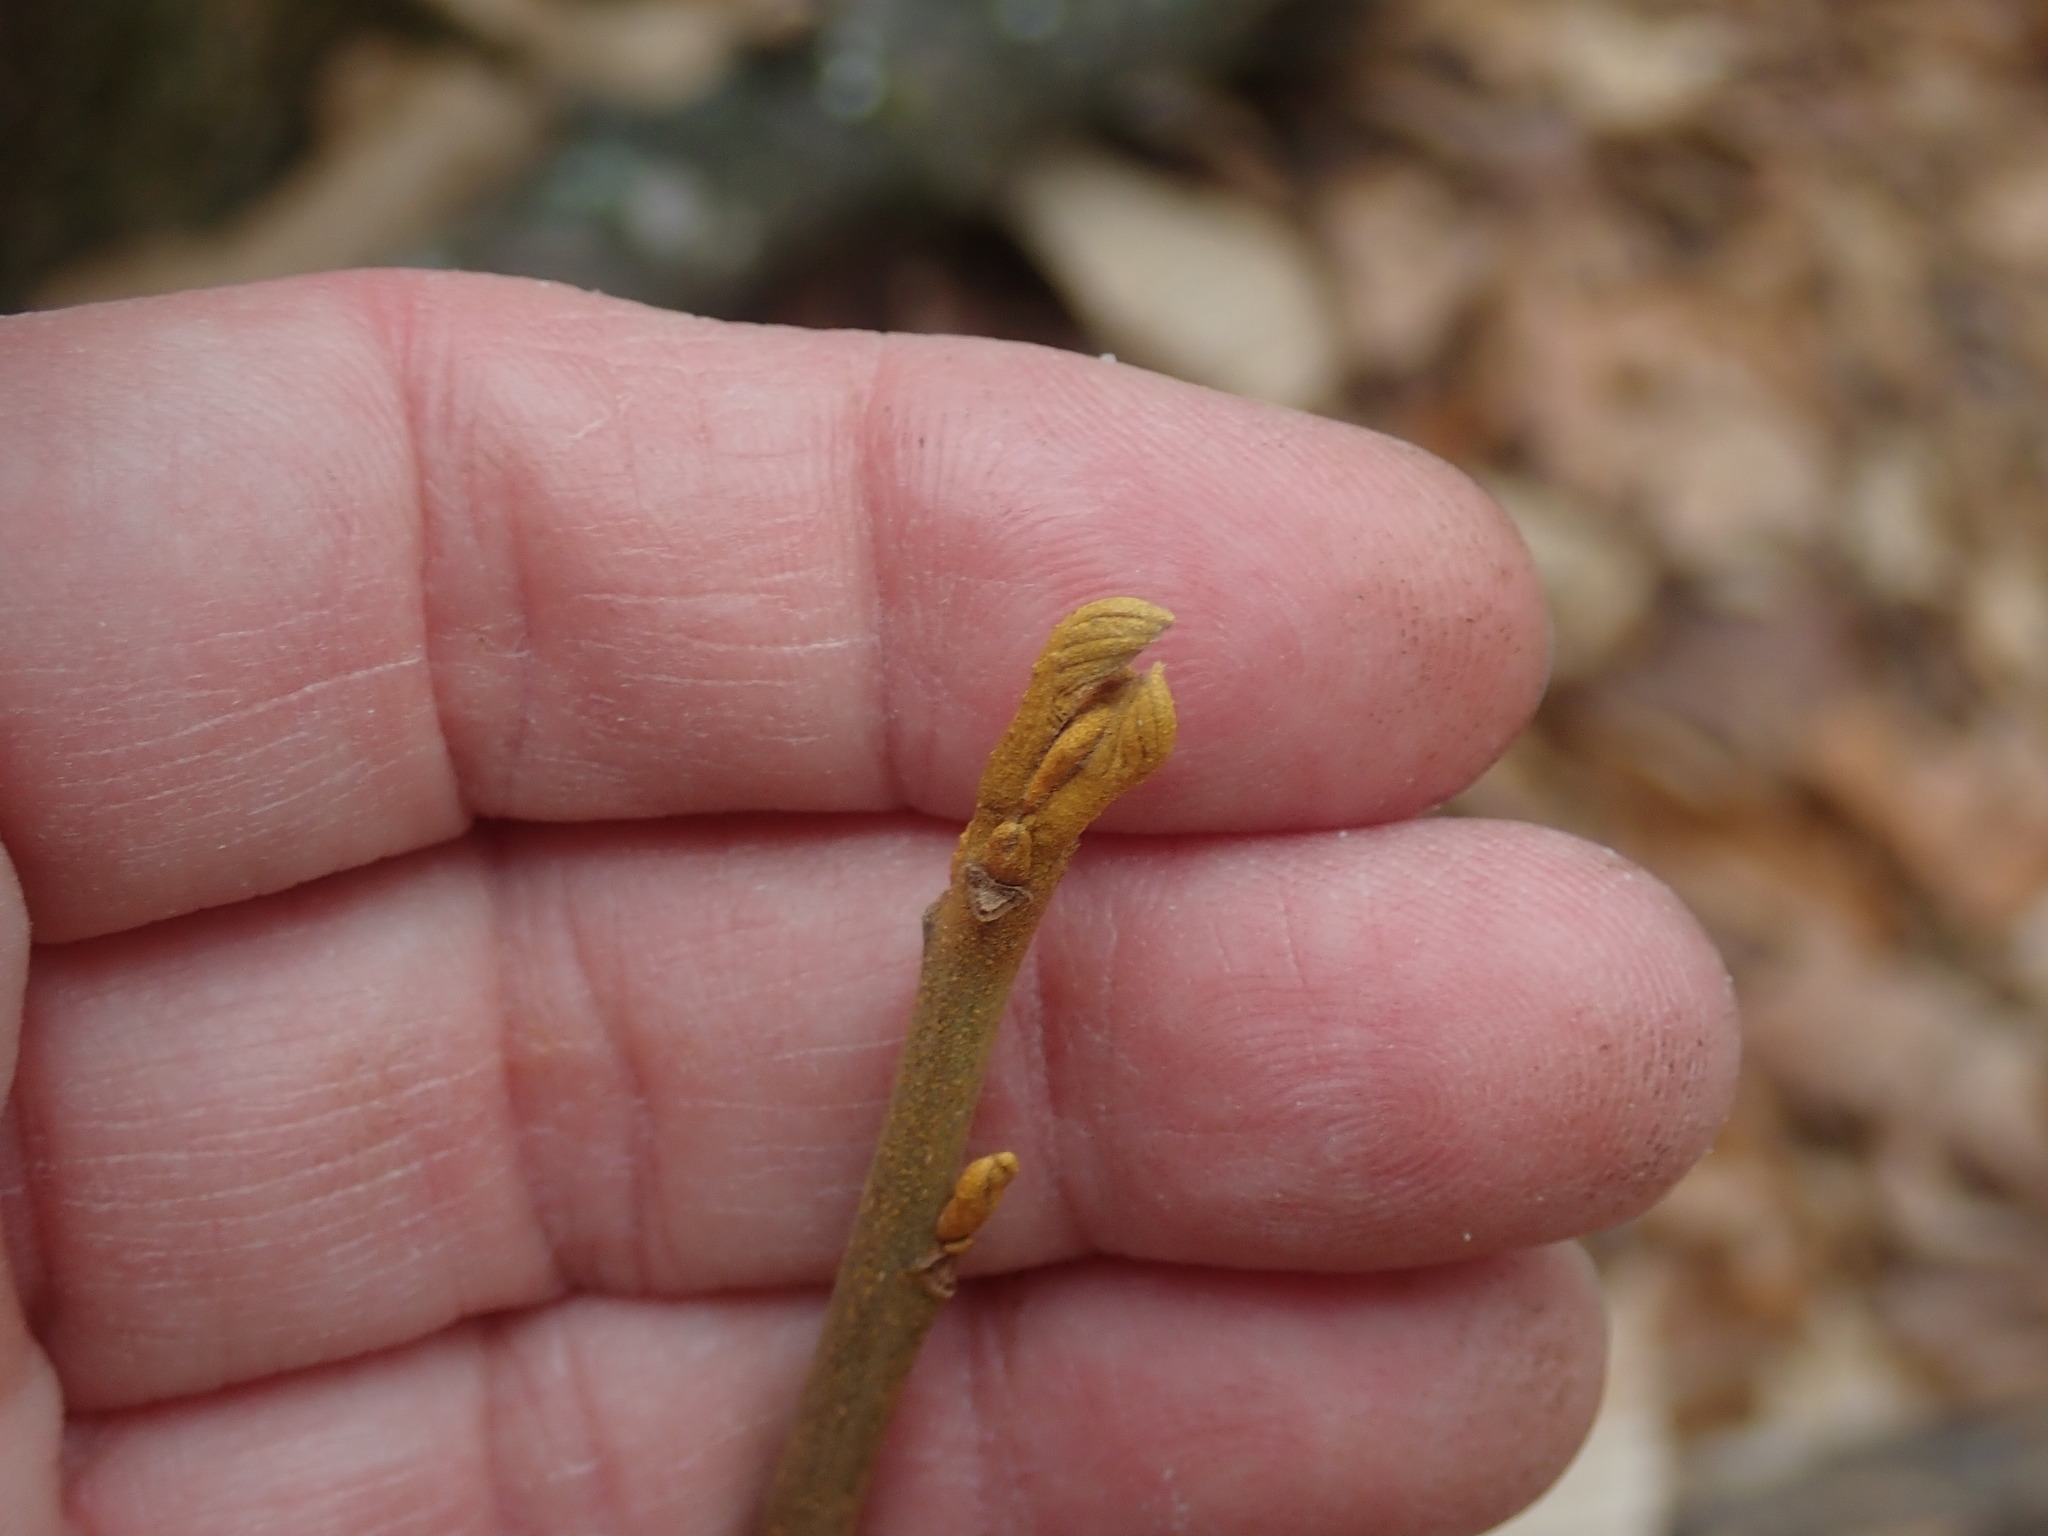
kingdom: Plantae
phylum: Tracheophyta
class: Magnoliopsida
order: Fagales
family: Juglandaceae
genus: Carya
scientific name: Carya cordiformis
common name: Bitternut hickory
